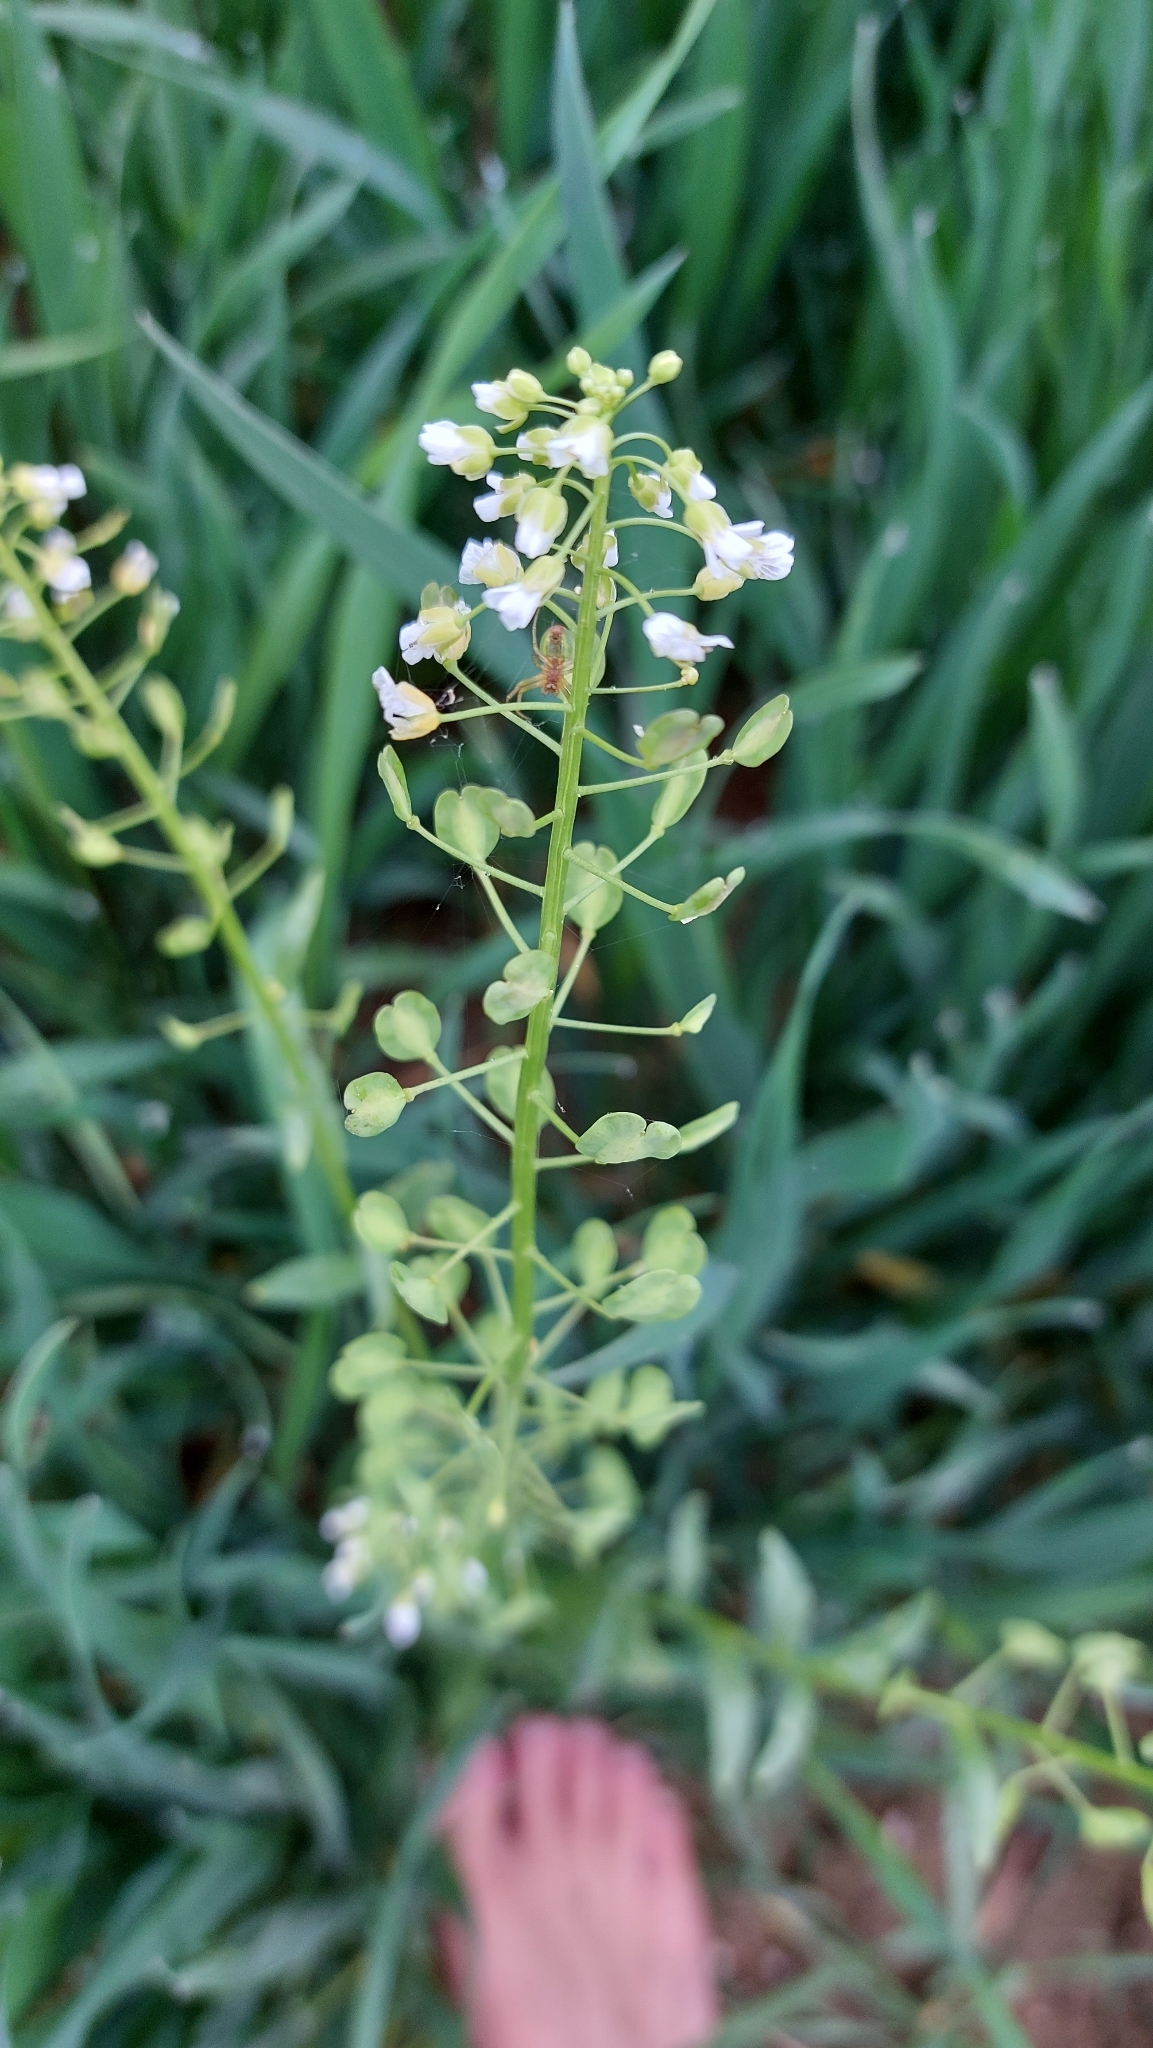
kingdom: Plantae
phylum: Tracheophyta
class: Magnoliopsida
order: Brassicales
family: Brassicaceae
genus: Thlaspi
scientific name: Thlaspi arvense
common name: Field pennycress
